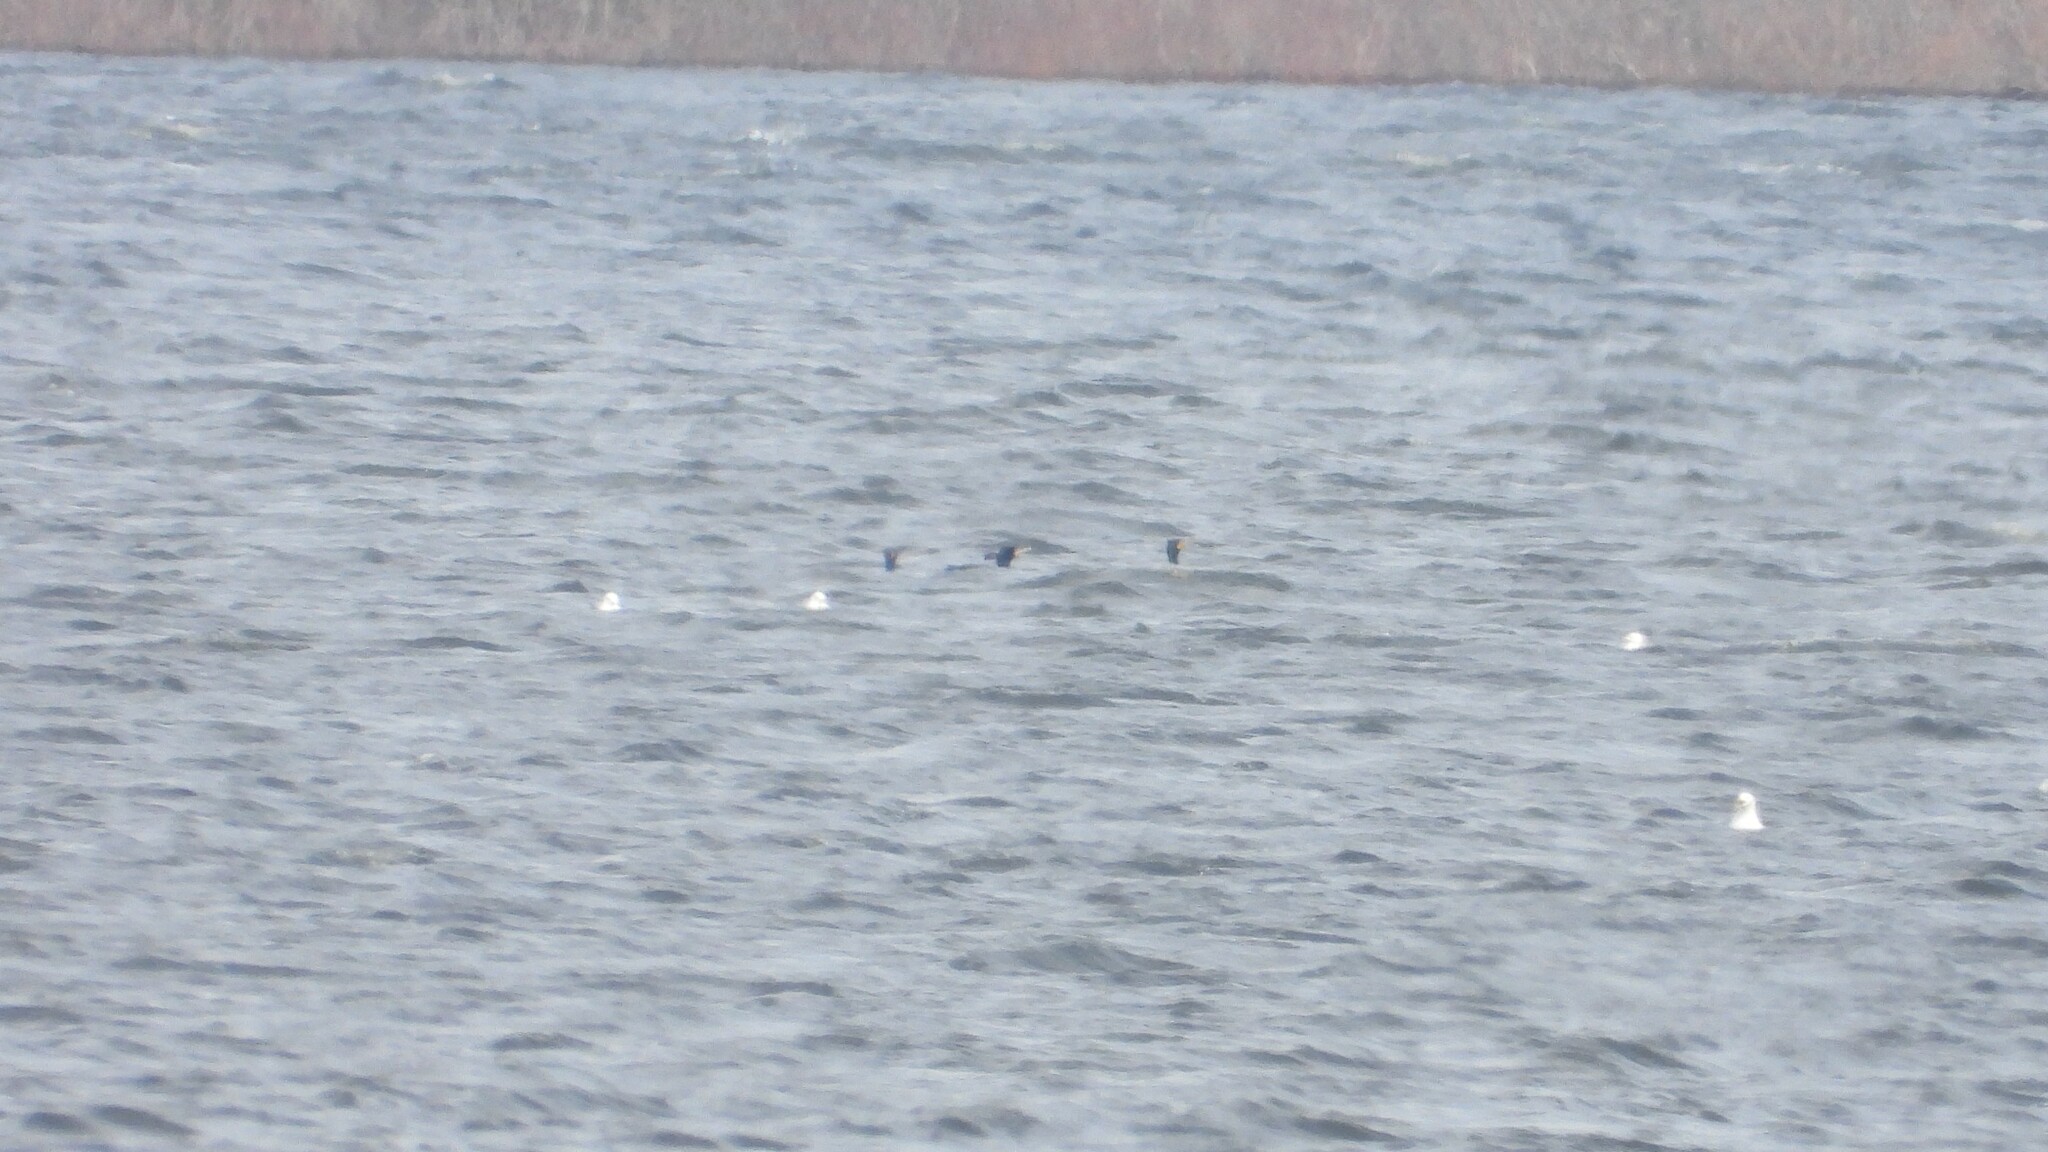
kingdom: Animalia
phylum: Chordata
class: Aves
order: Suliformes
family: Phalacrocoracidae
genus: Phalacrocorax
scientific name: Phalacrocorax auritus
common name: Double-crested cormorant
